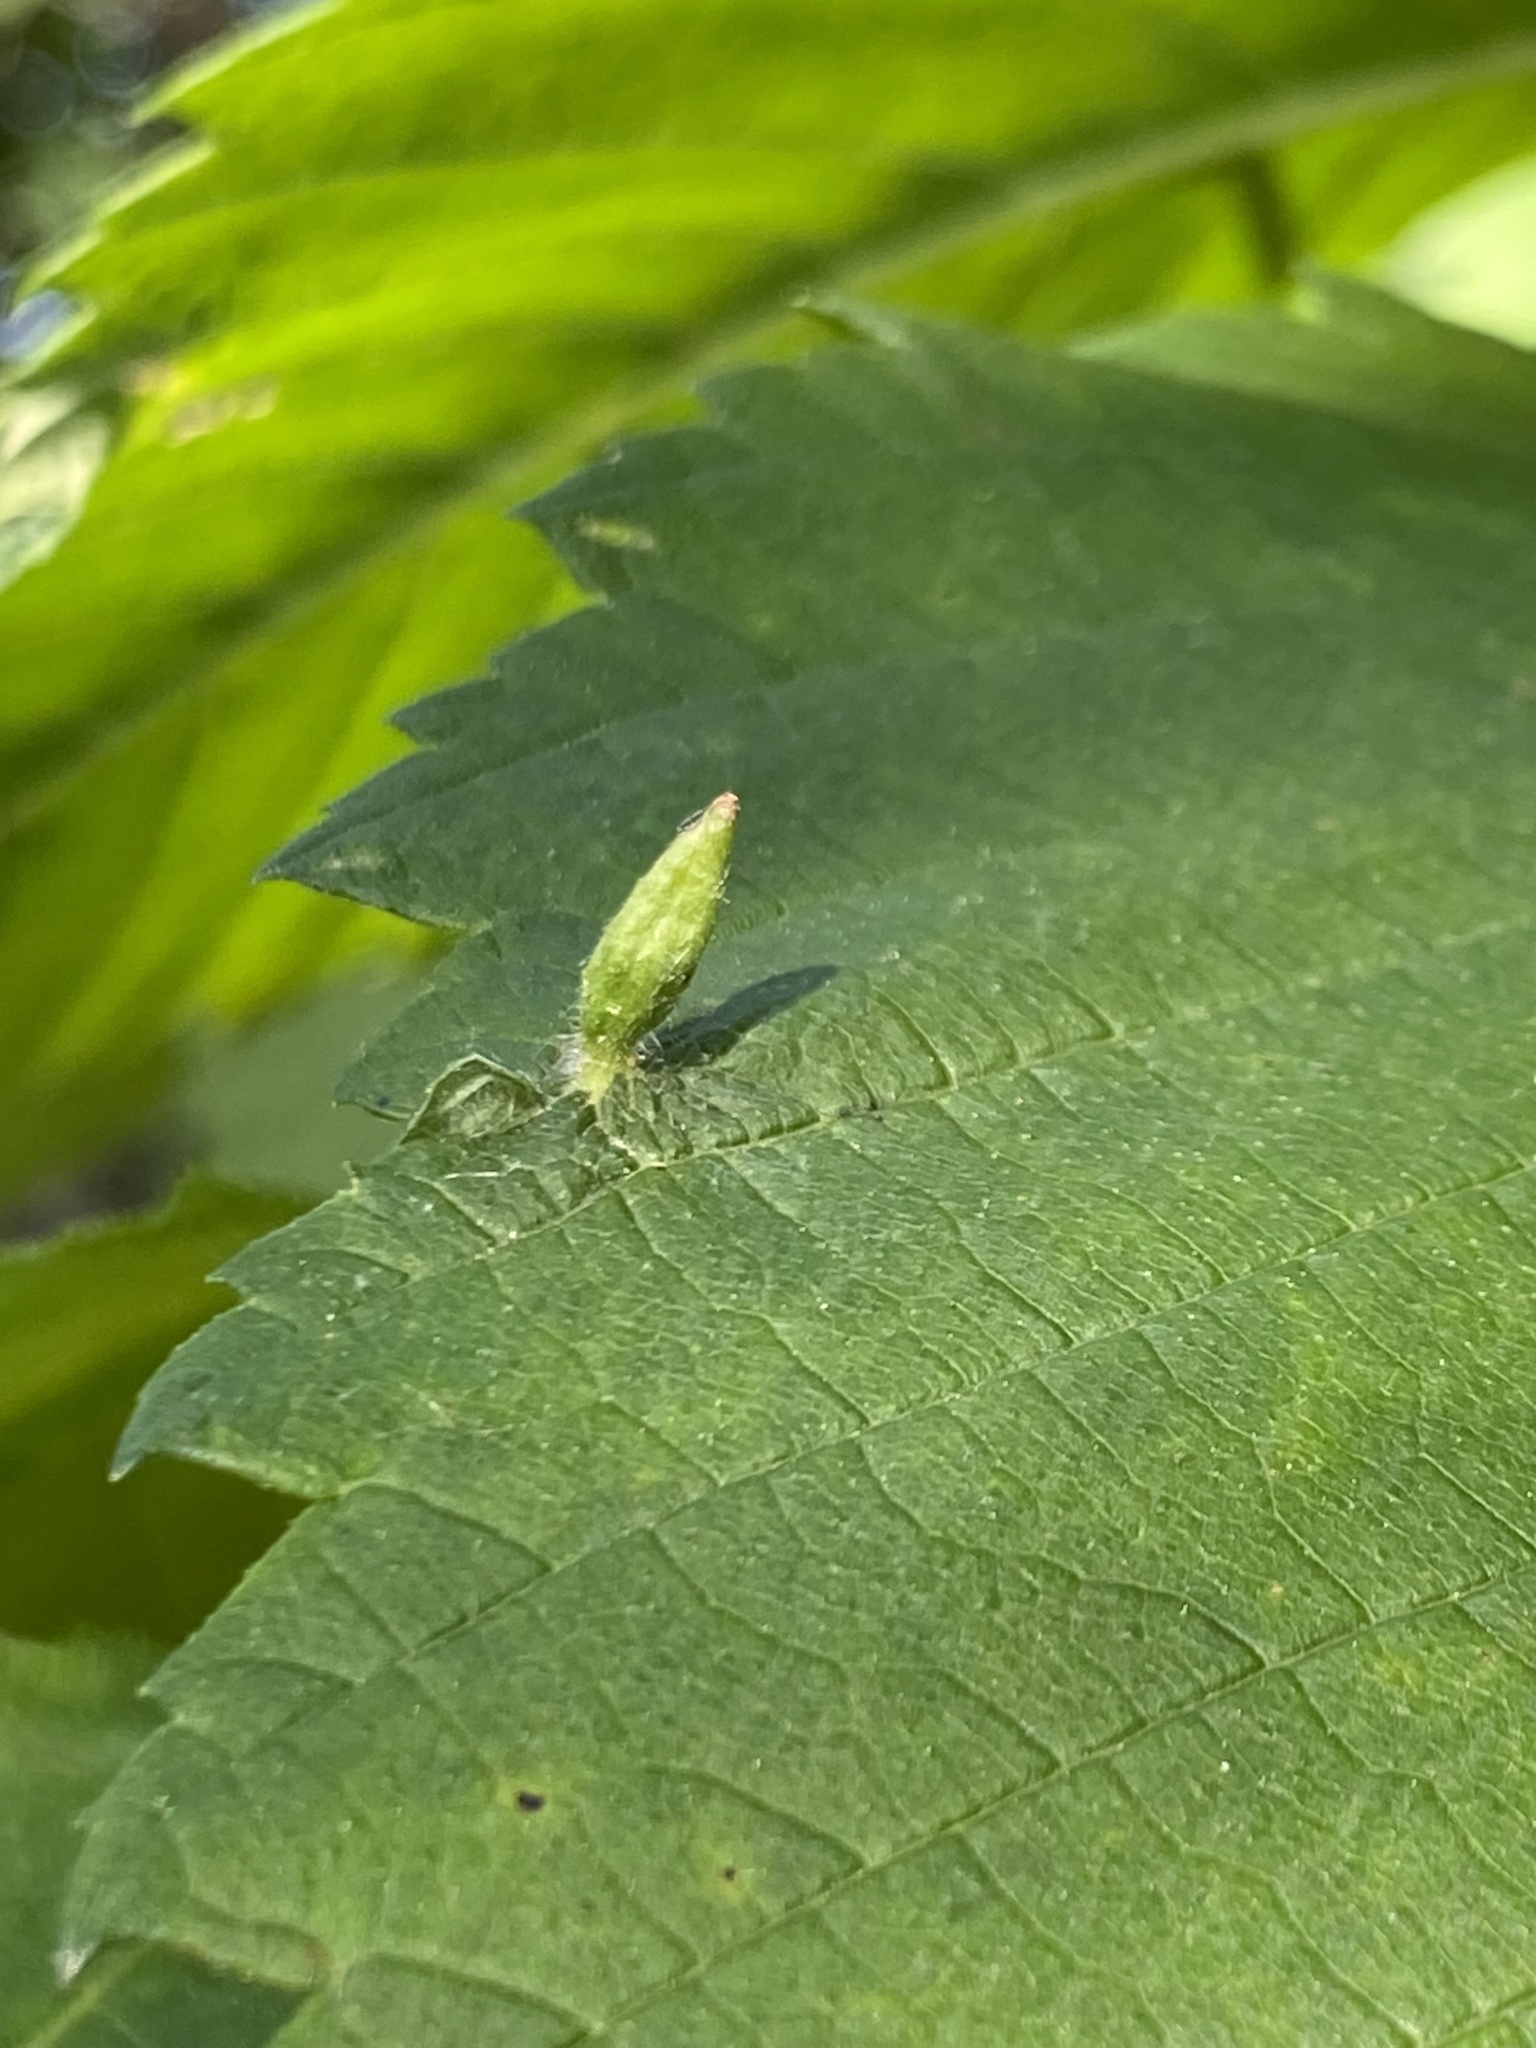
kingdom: Animalia
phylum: Arthropoda
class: Arachnida
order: Trombidiformes
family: Eriophyidae
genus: Aceria
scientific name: Aceria
